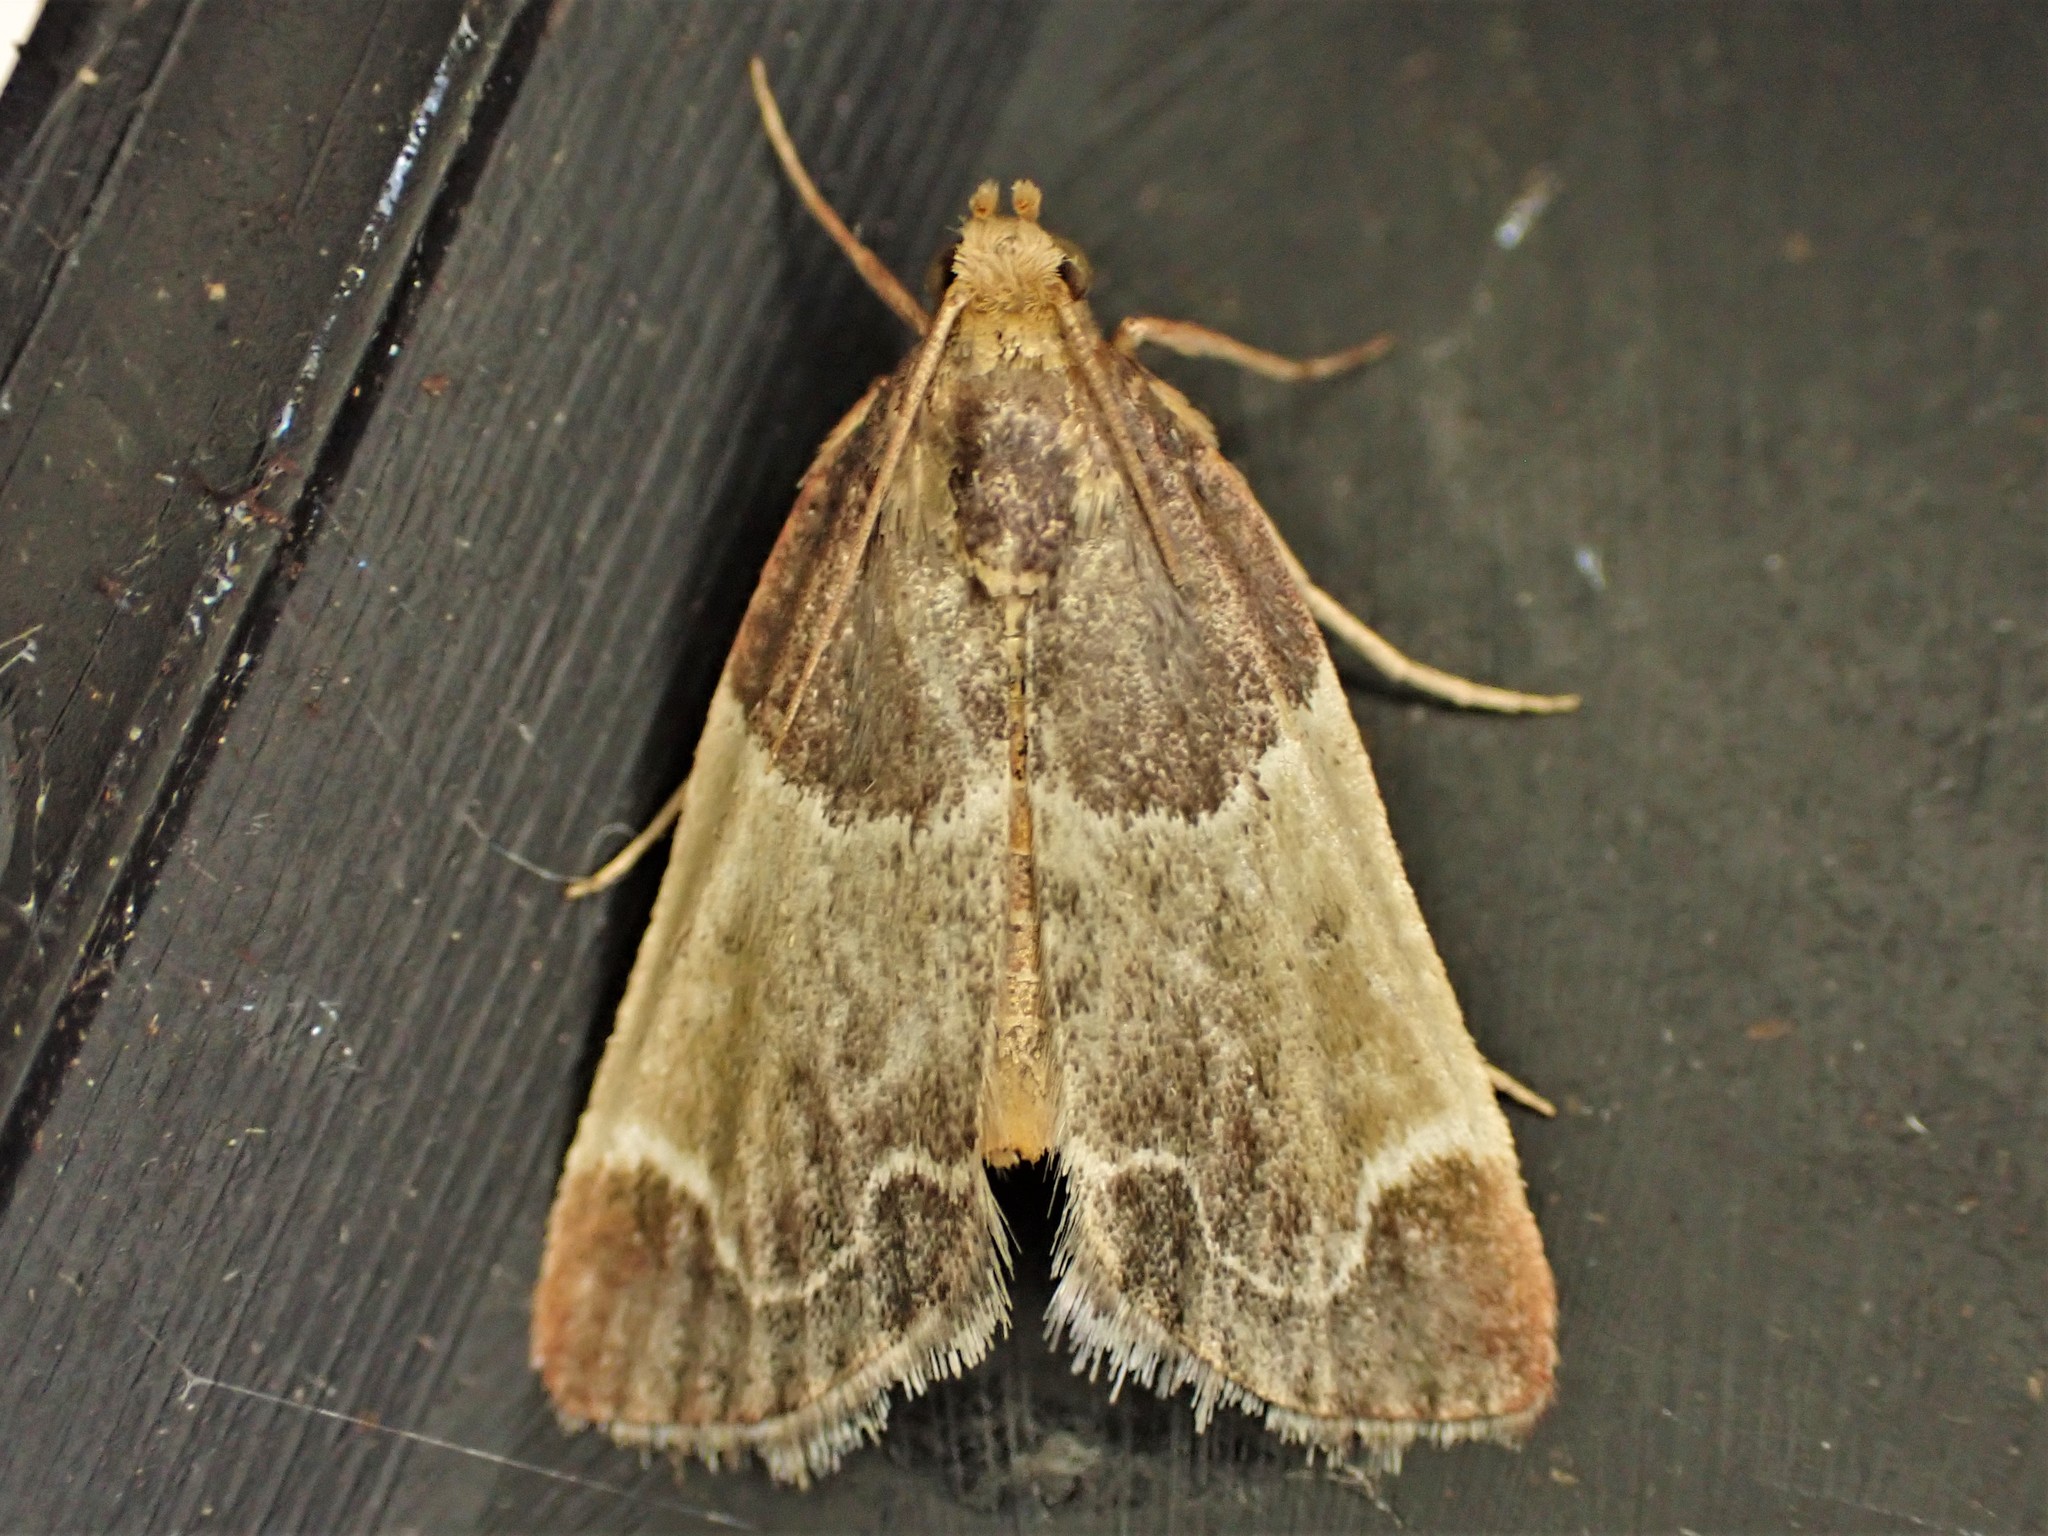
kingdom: Animalia
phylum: Arthropoda
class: Insecta
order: Lepidoptera
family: Pyralidae
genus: Pyralis
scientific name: Pyralis farinalis
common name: Meal moth
